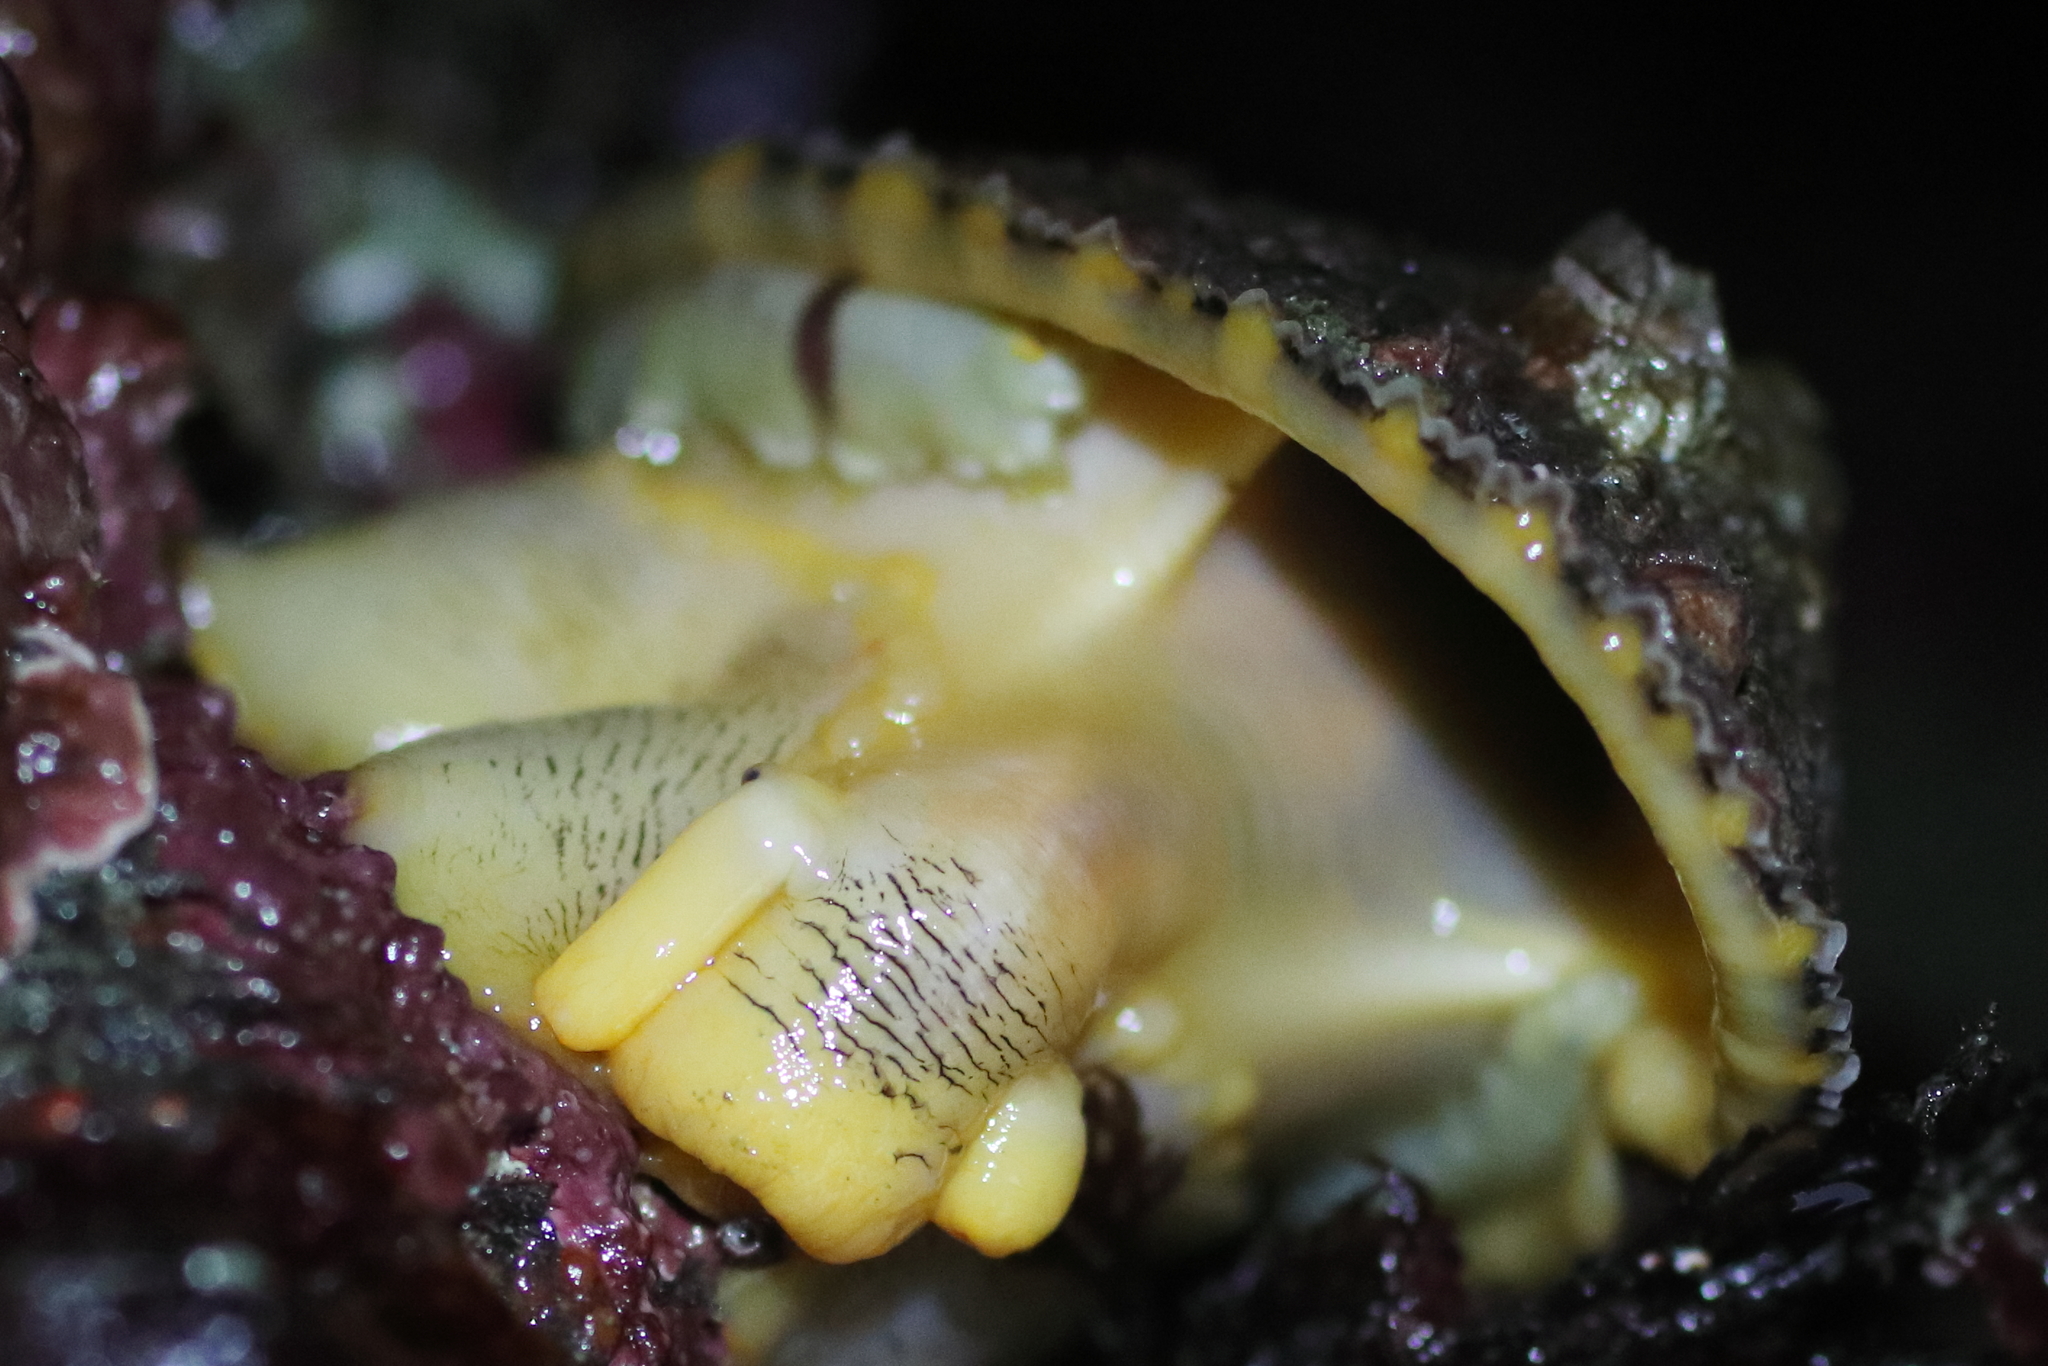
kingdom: Animalia
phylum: Annelida
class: Polychaeta
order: Phyllodocida
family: Polynoidae
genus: Arctonoe
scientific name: Arctonoe vittata
